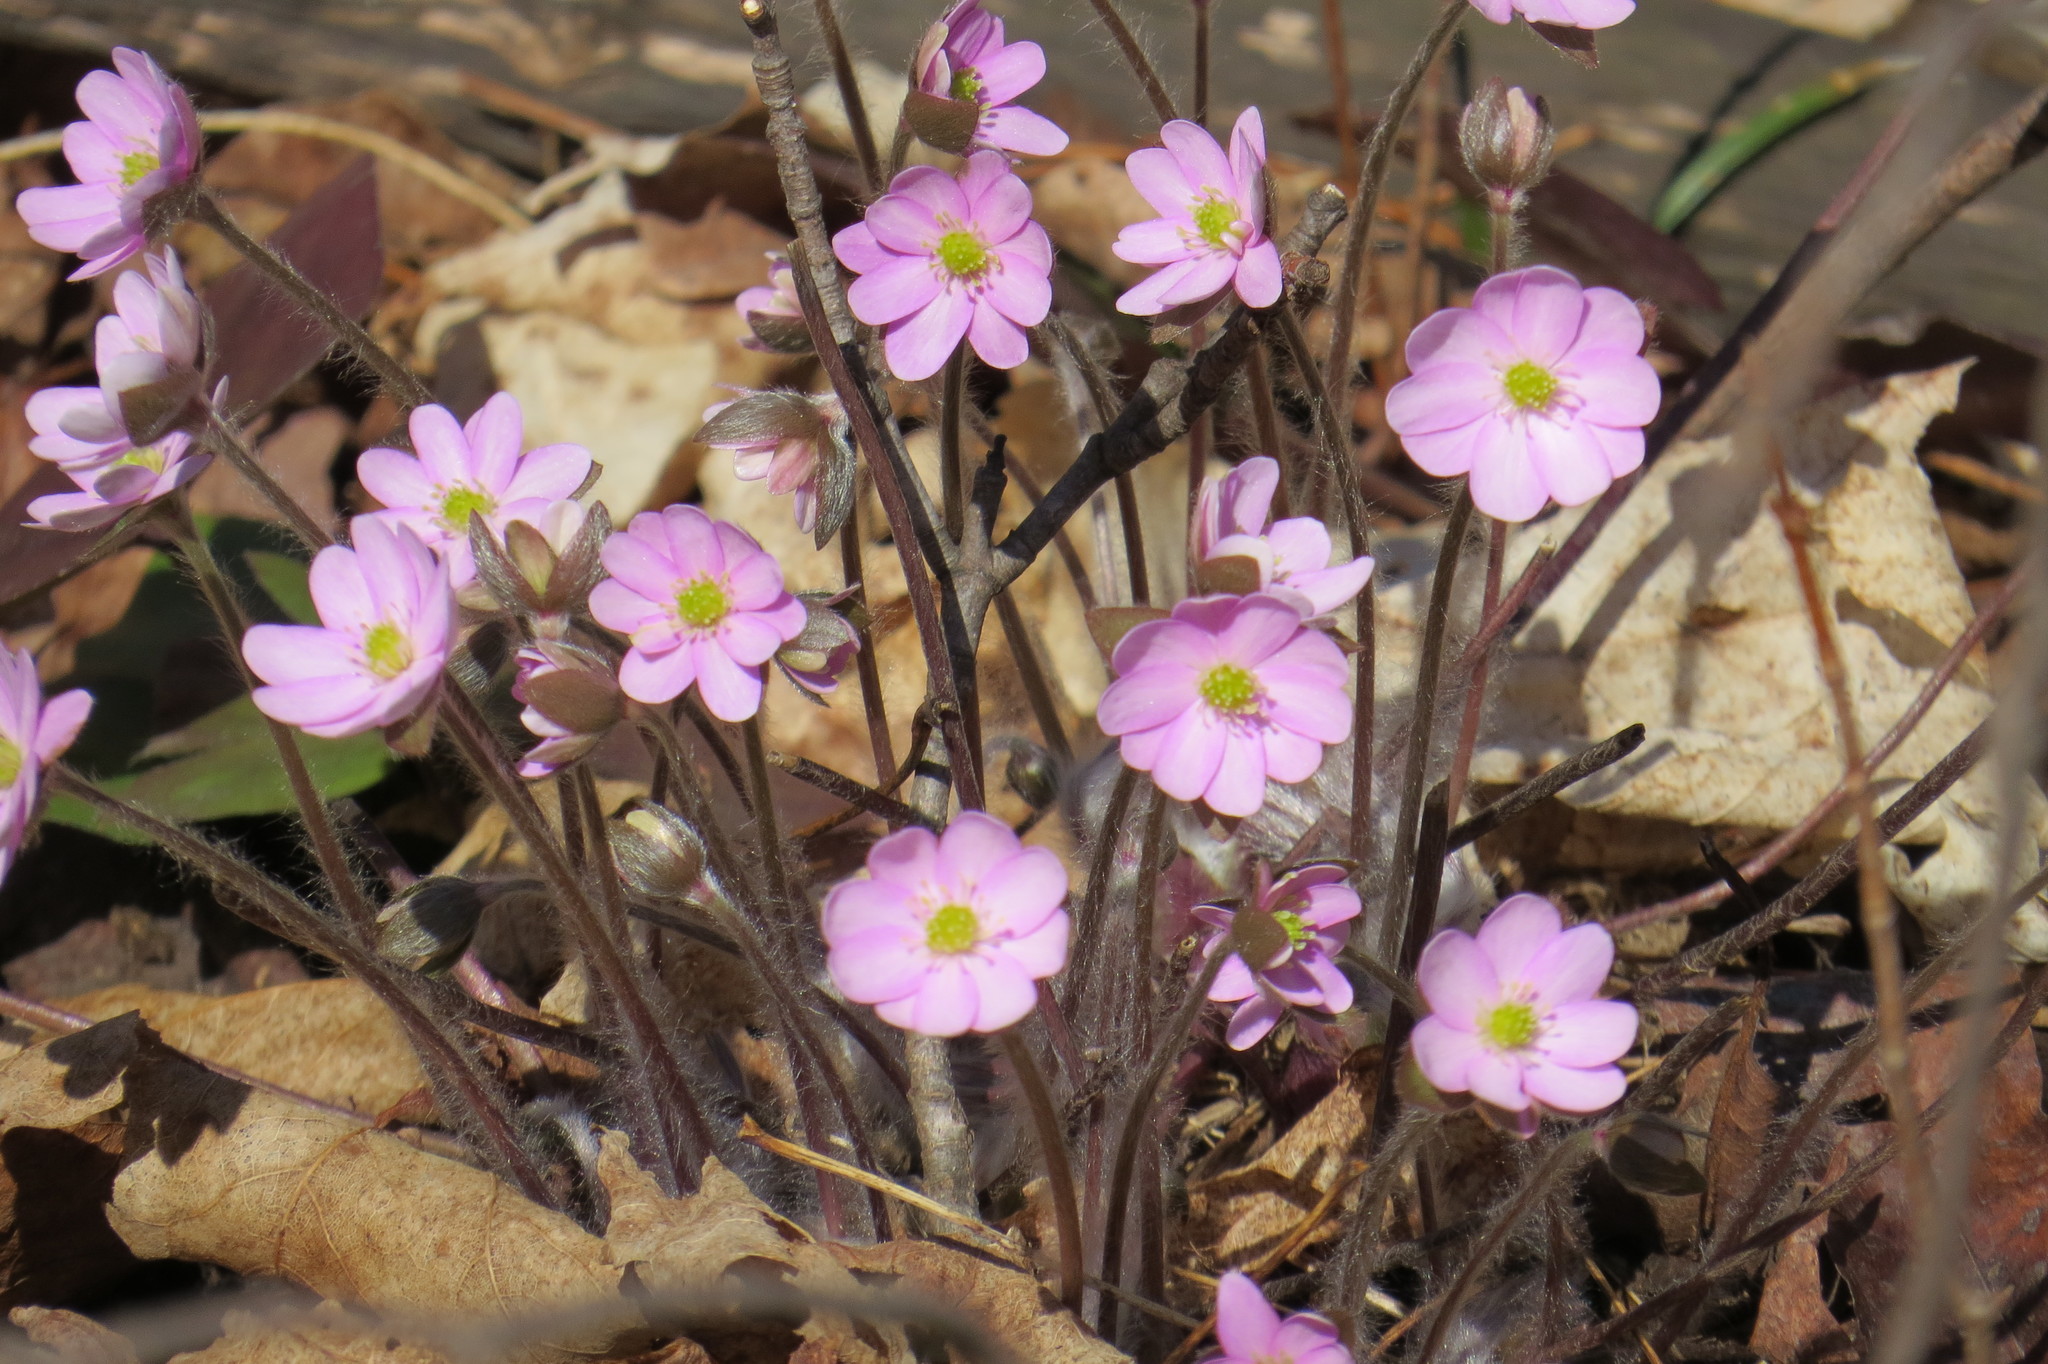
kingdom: Plantae
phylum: Tracheophyta
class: Magnoliopsida
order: Ranunculales
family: Ranunculaceae
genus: Hepatica
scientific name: Hepatica acutiloba
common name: Sharp-lobed hepatica
